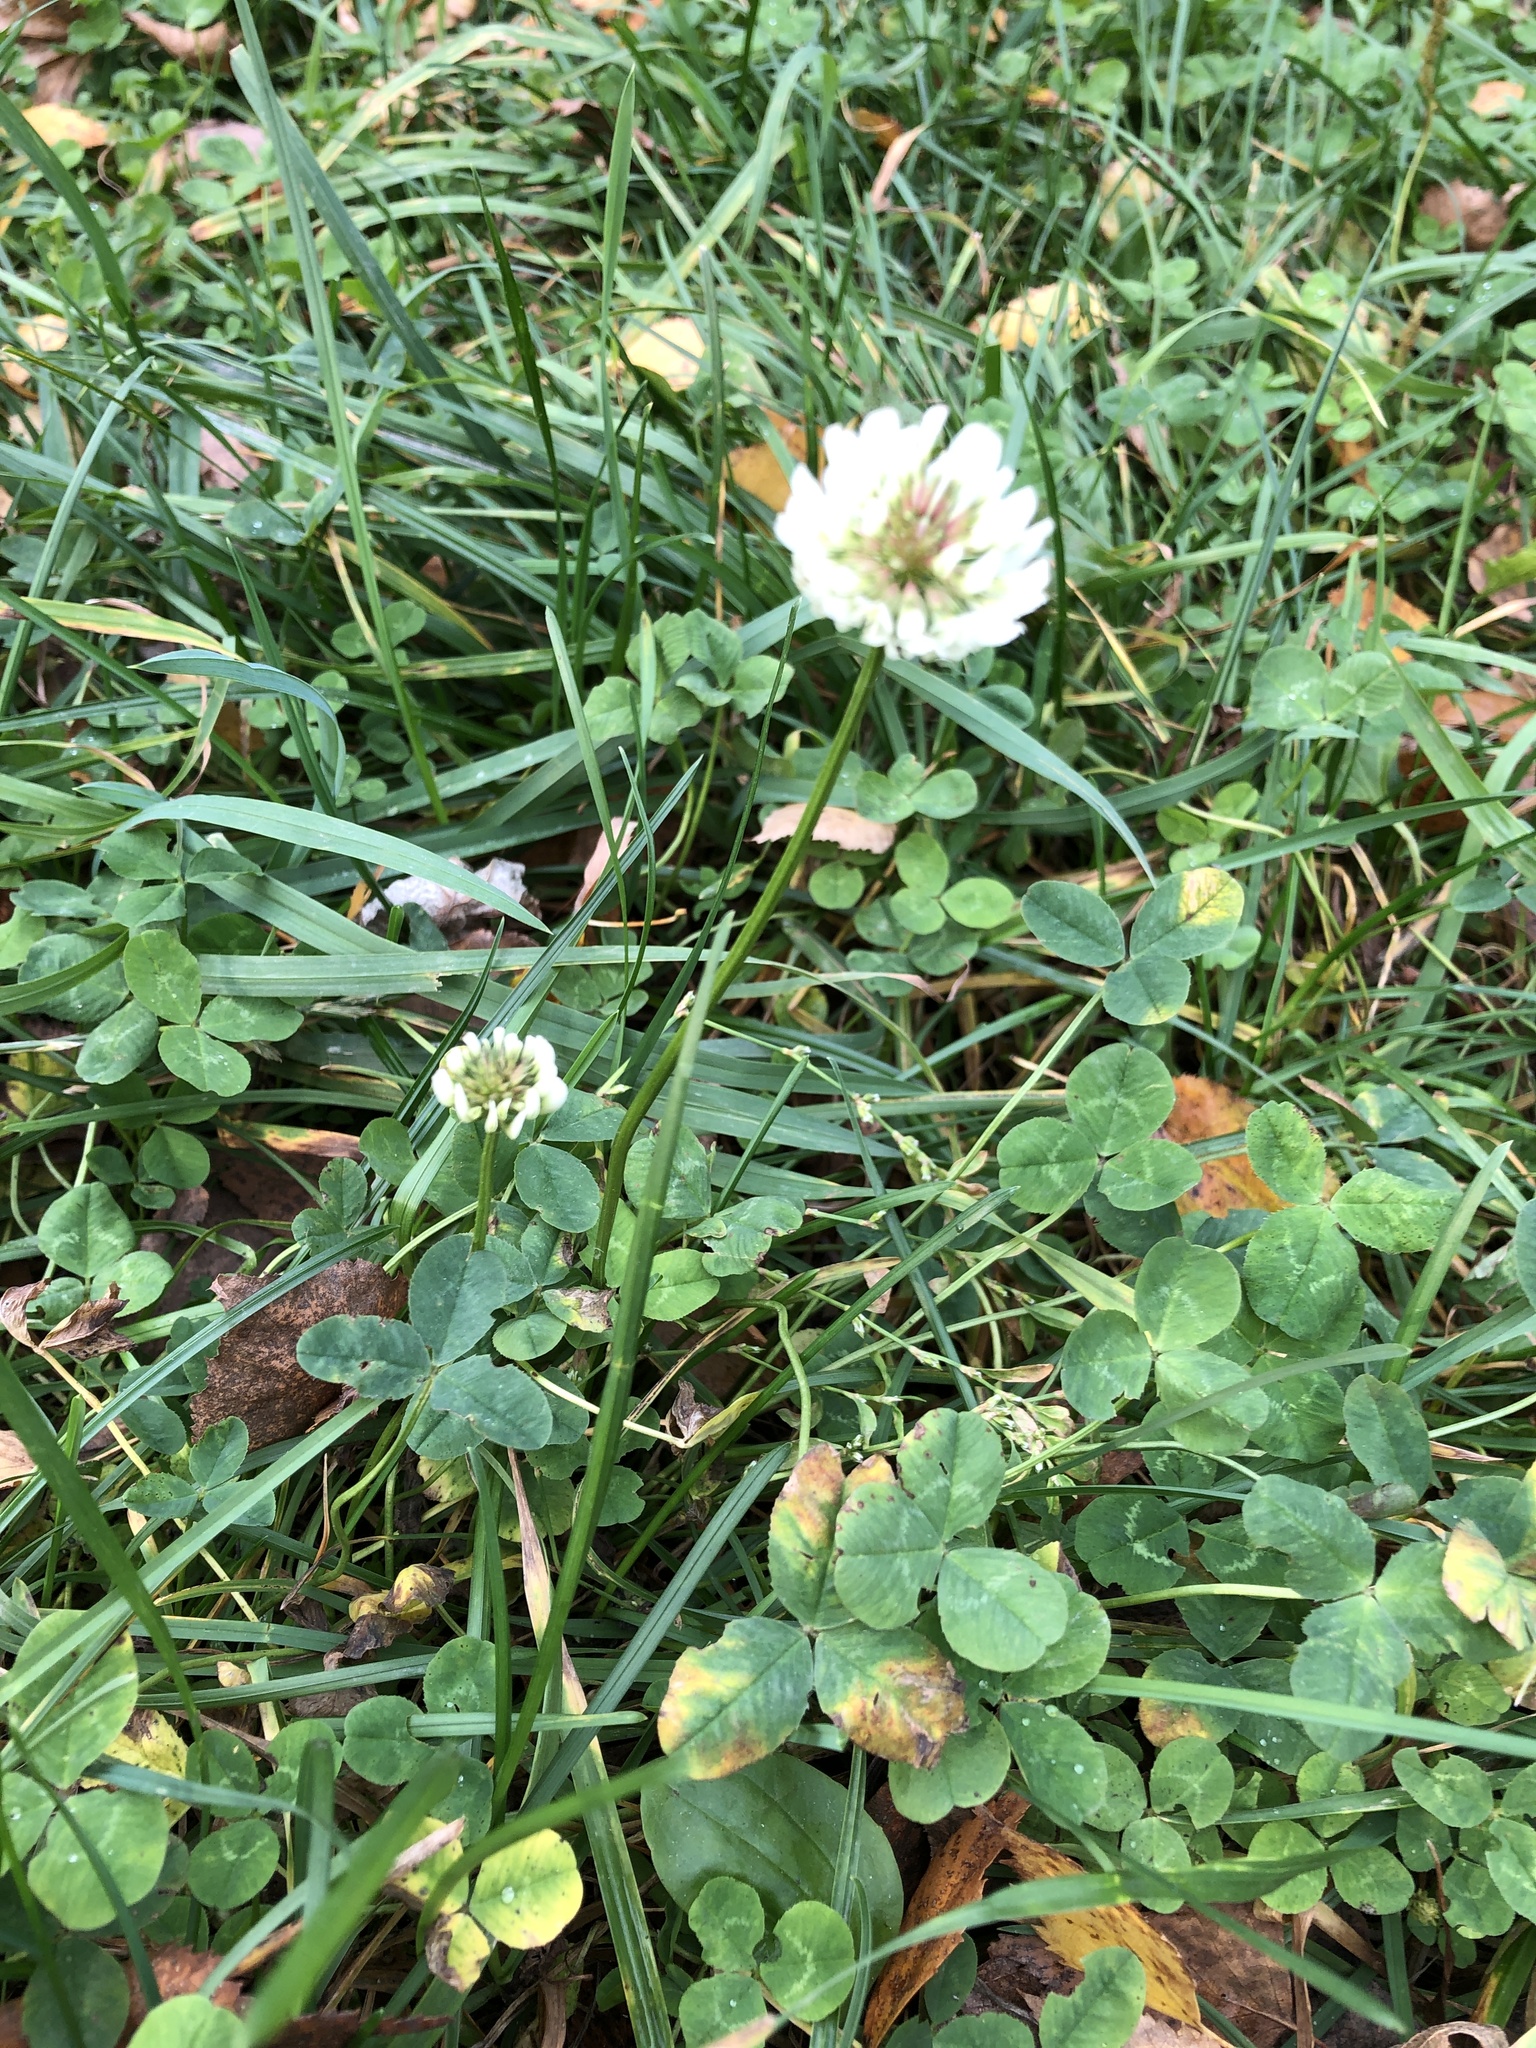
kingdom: Plantae
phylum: Tracheophyta
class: Magnoliopsida
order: Fabales
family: Fabaceae
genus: Trifolium
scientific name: Trifolium repens
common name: White clover
